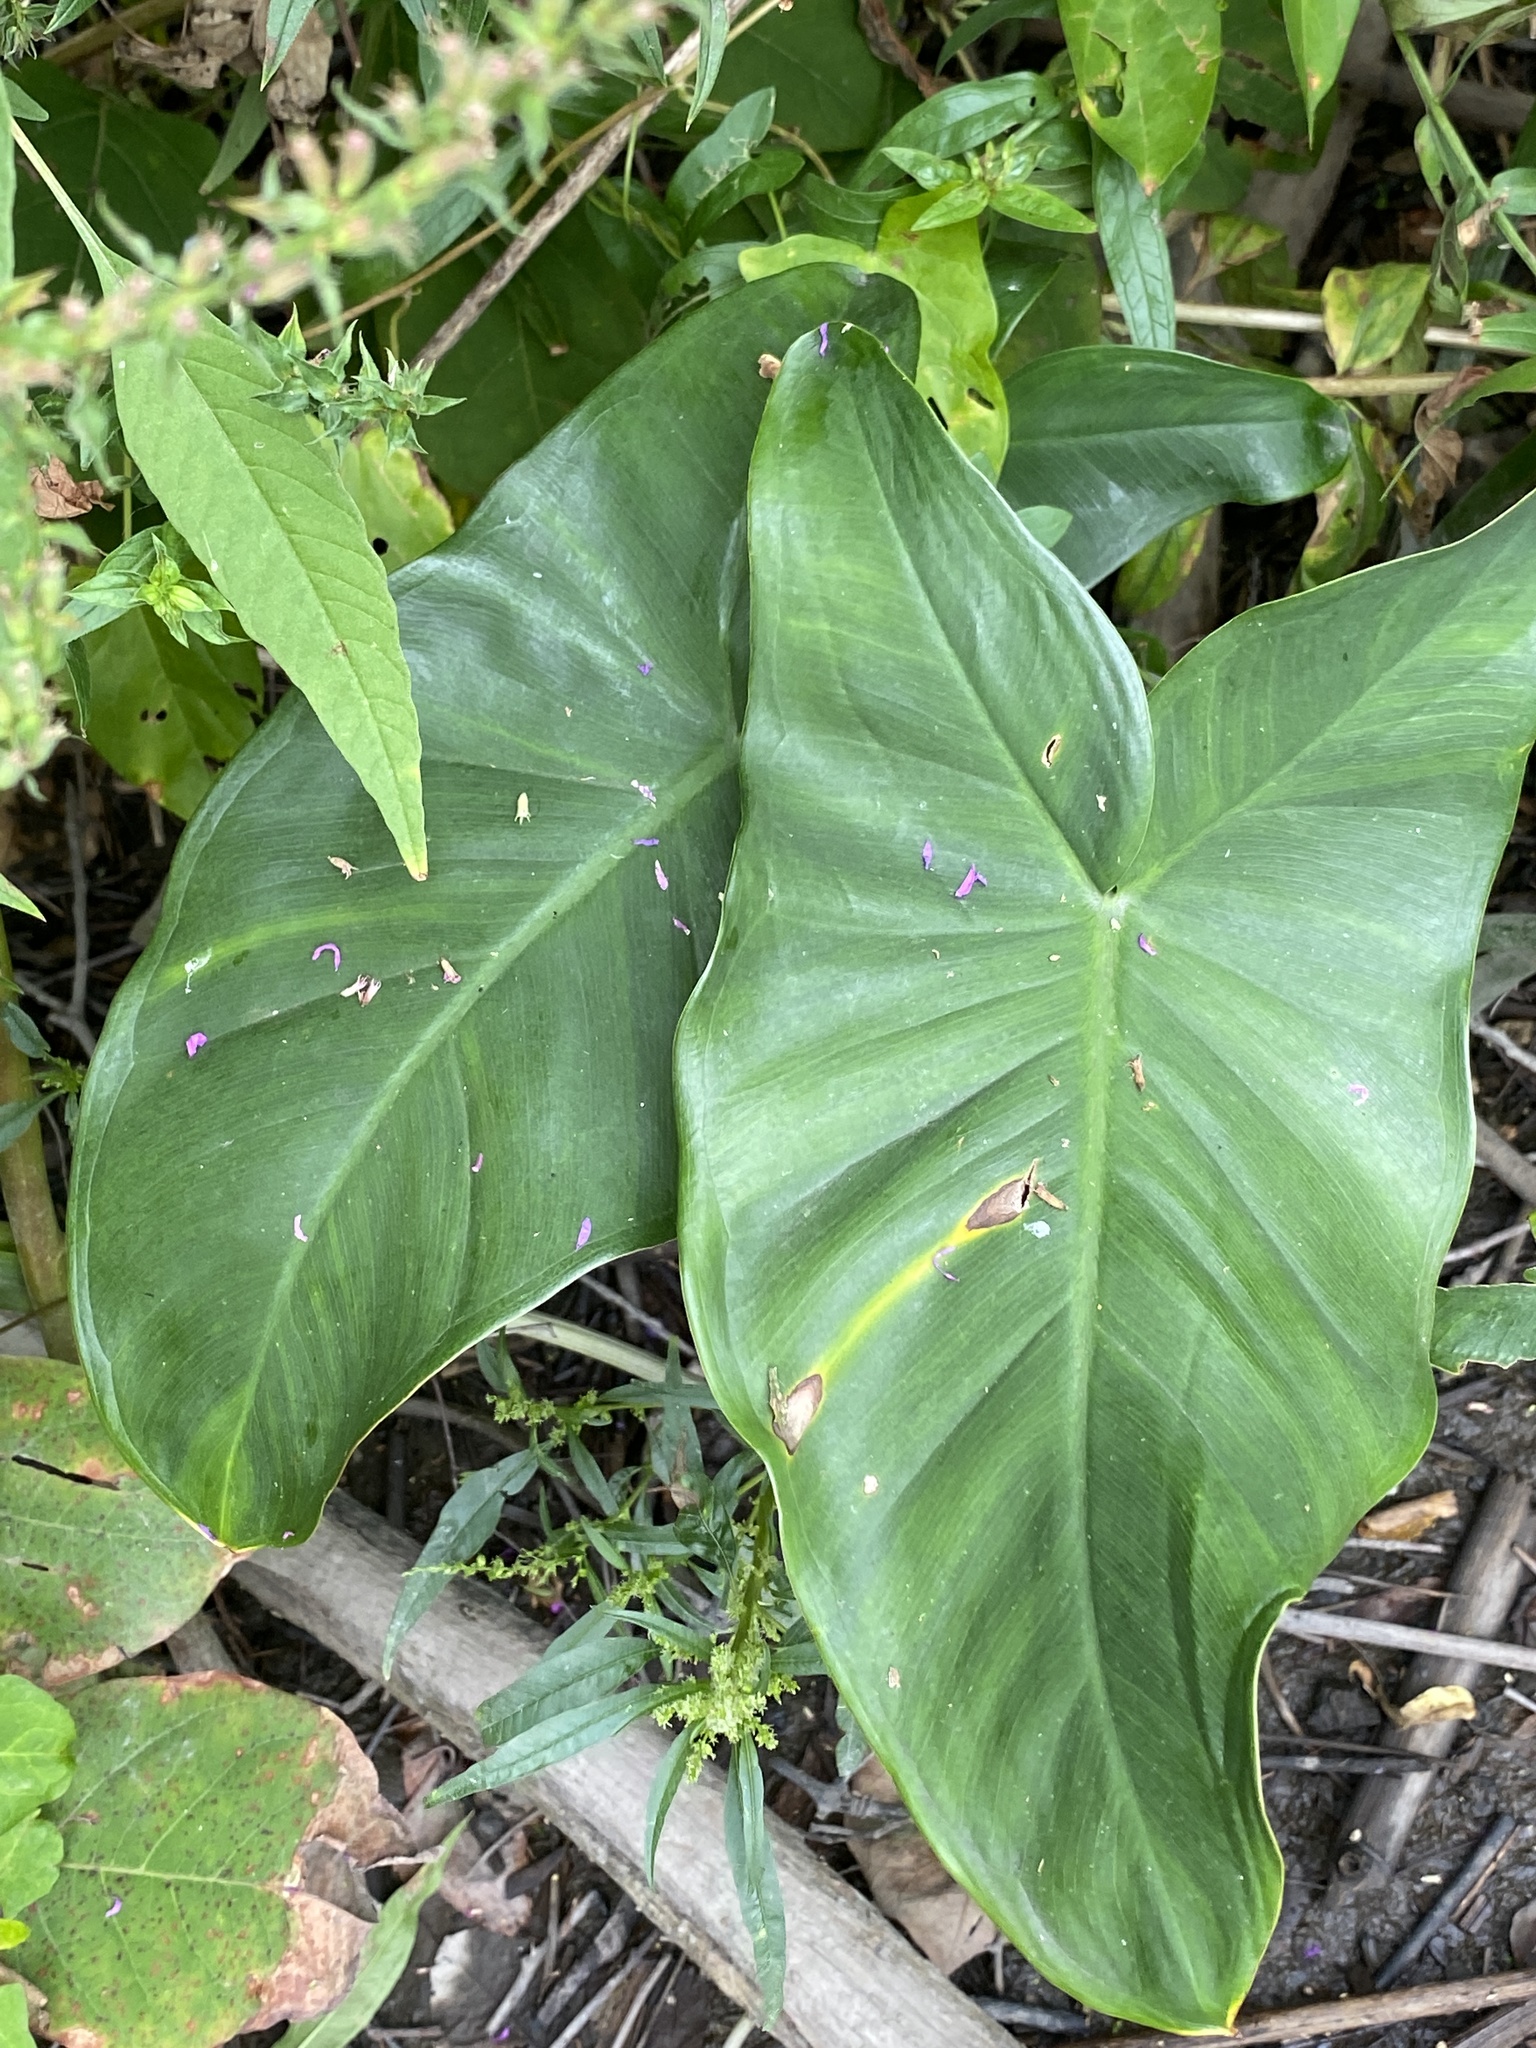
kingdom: Plantae
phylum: Tracheophyta
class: Liliopsida
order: Alismatales
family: Araceae
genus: Peltandra
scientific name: Peltandra virginica
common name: Arrow arum
